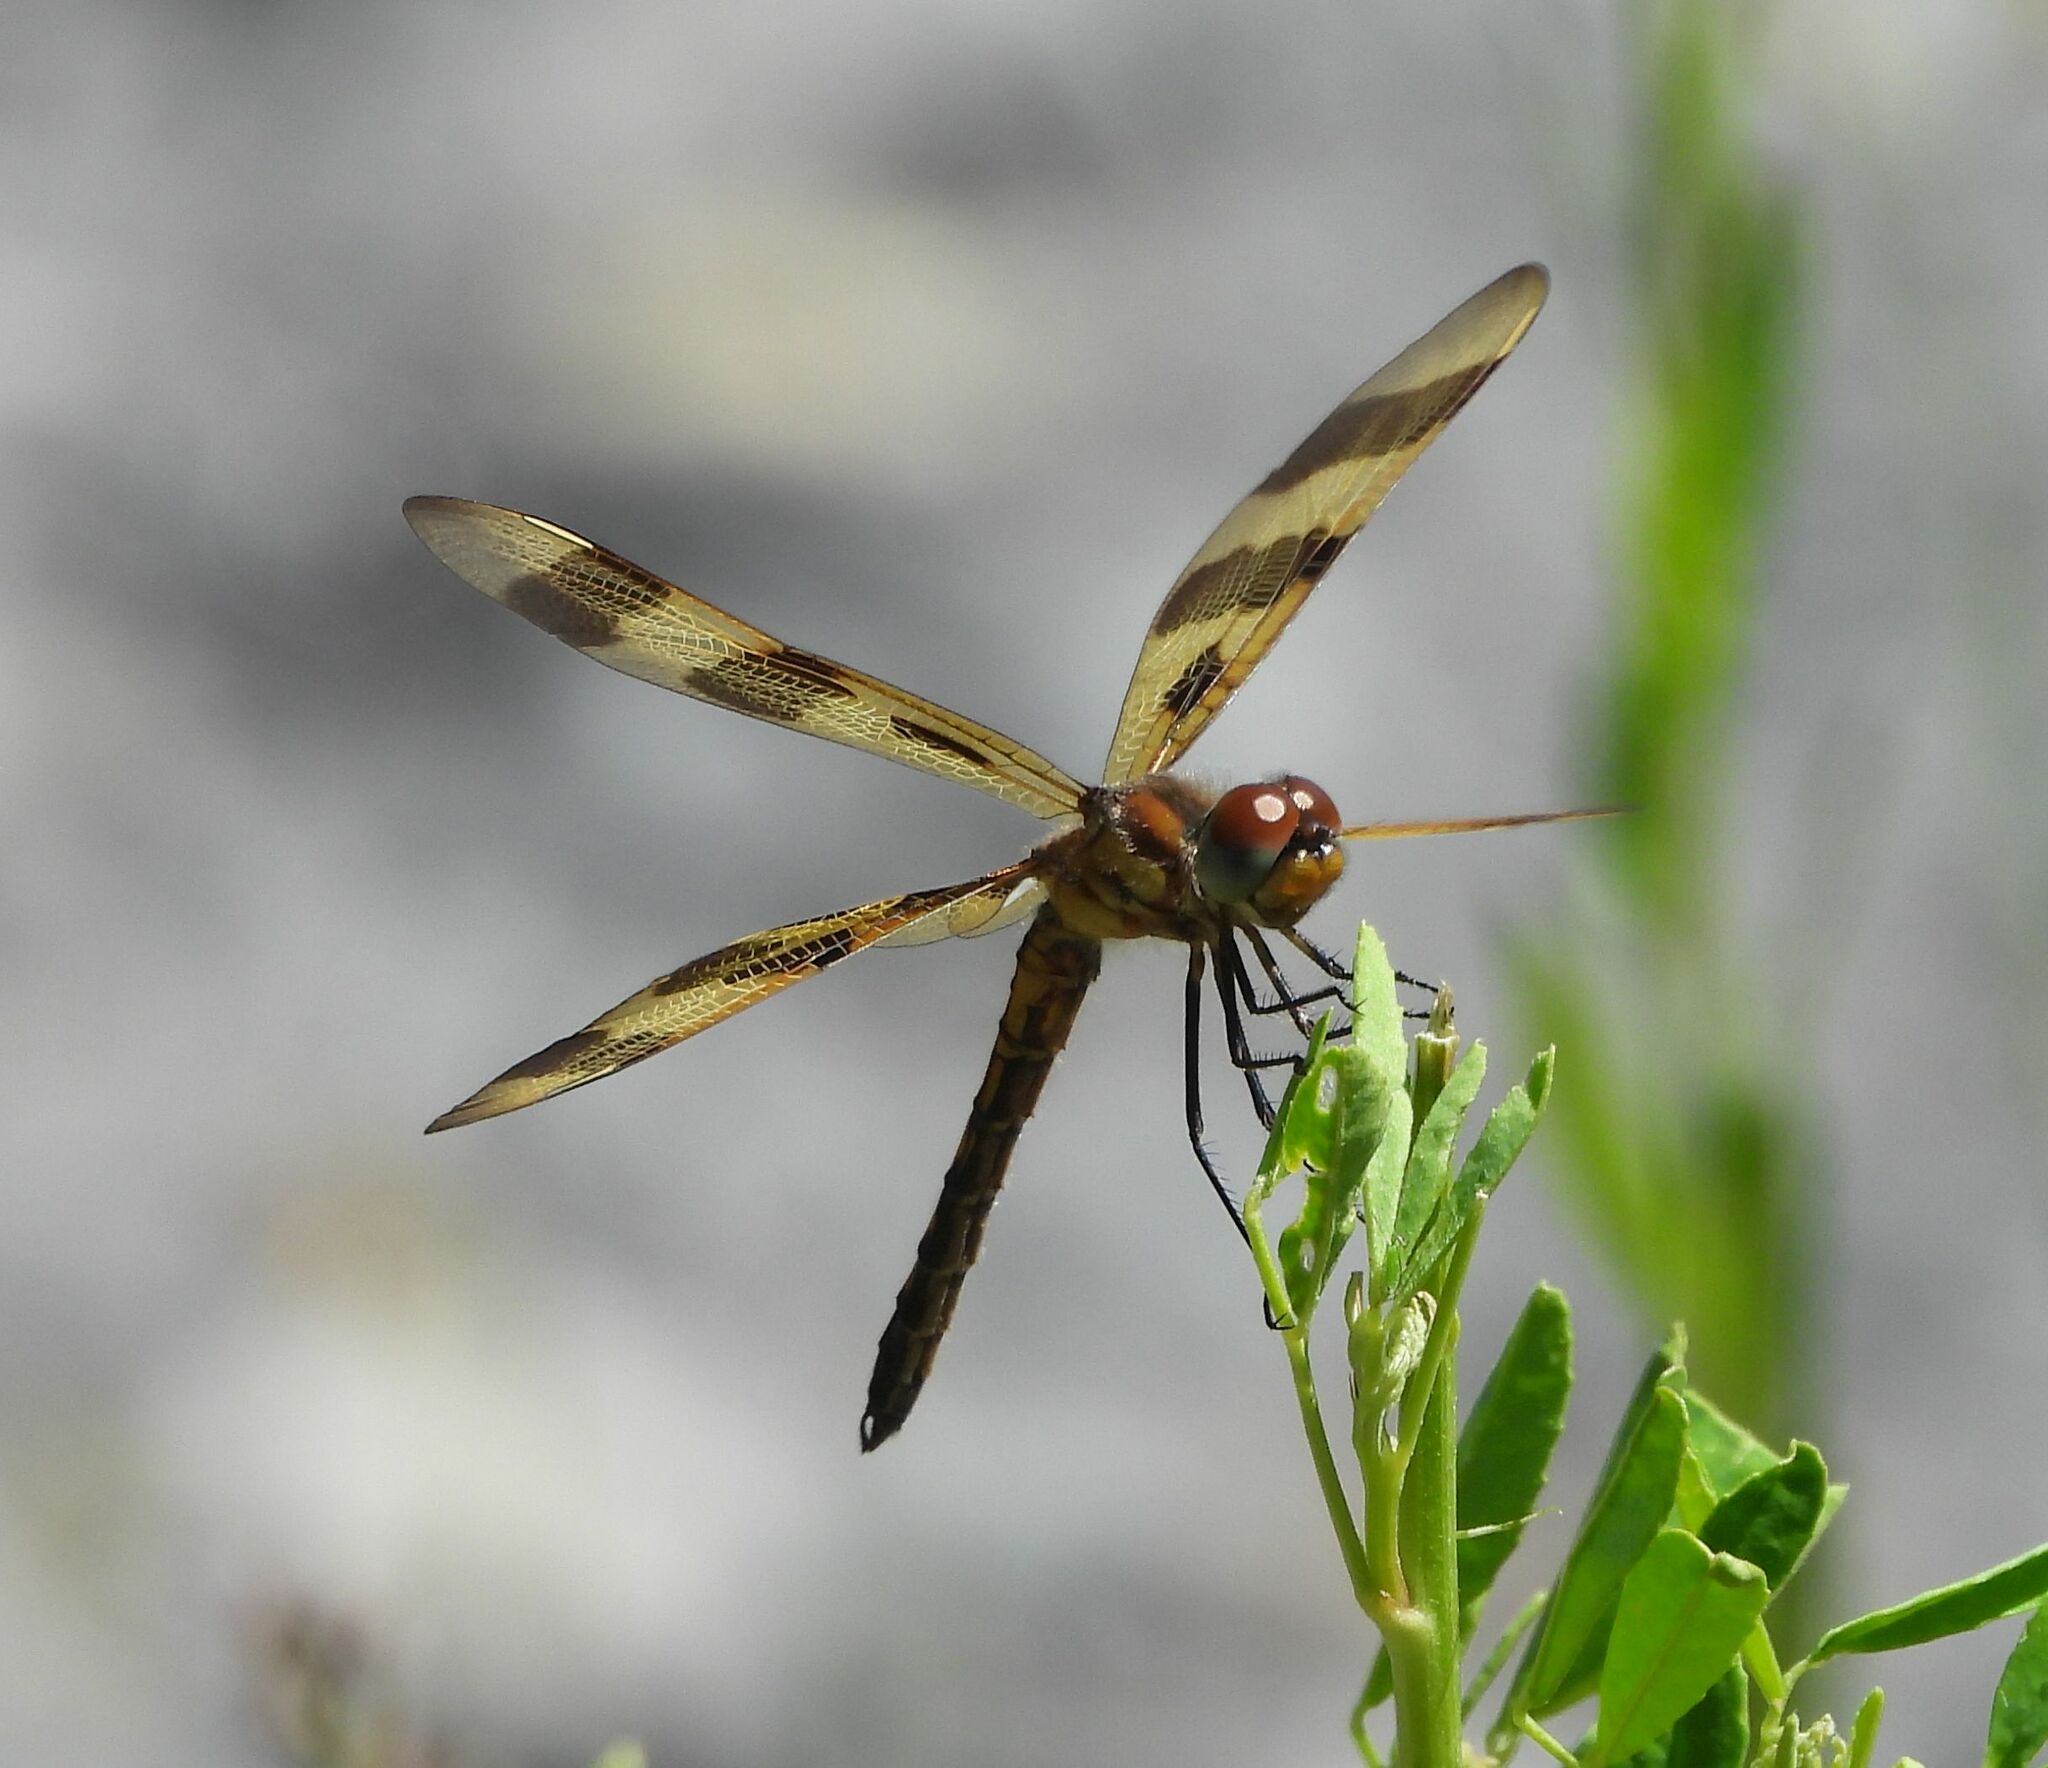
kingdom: Animalia
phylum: Arthropoda
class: Insecta
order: Odonata
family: Libellulidae
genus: Celithemis
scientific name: Celithemis eponina
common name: Halloween pennant
